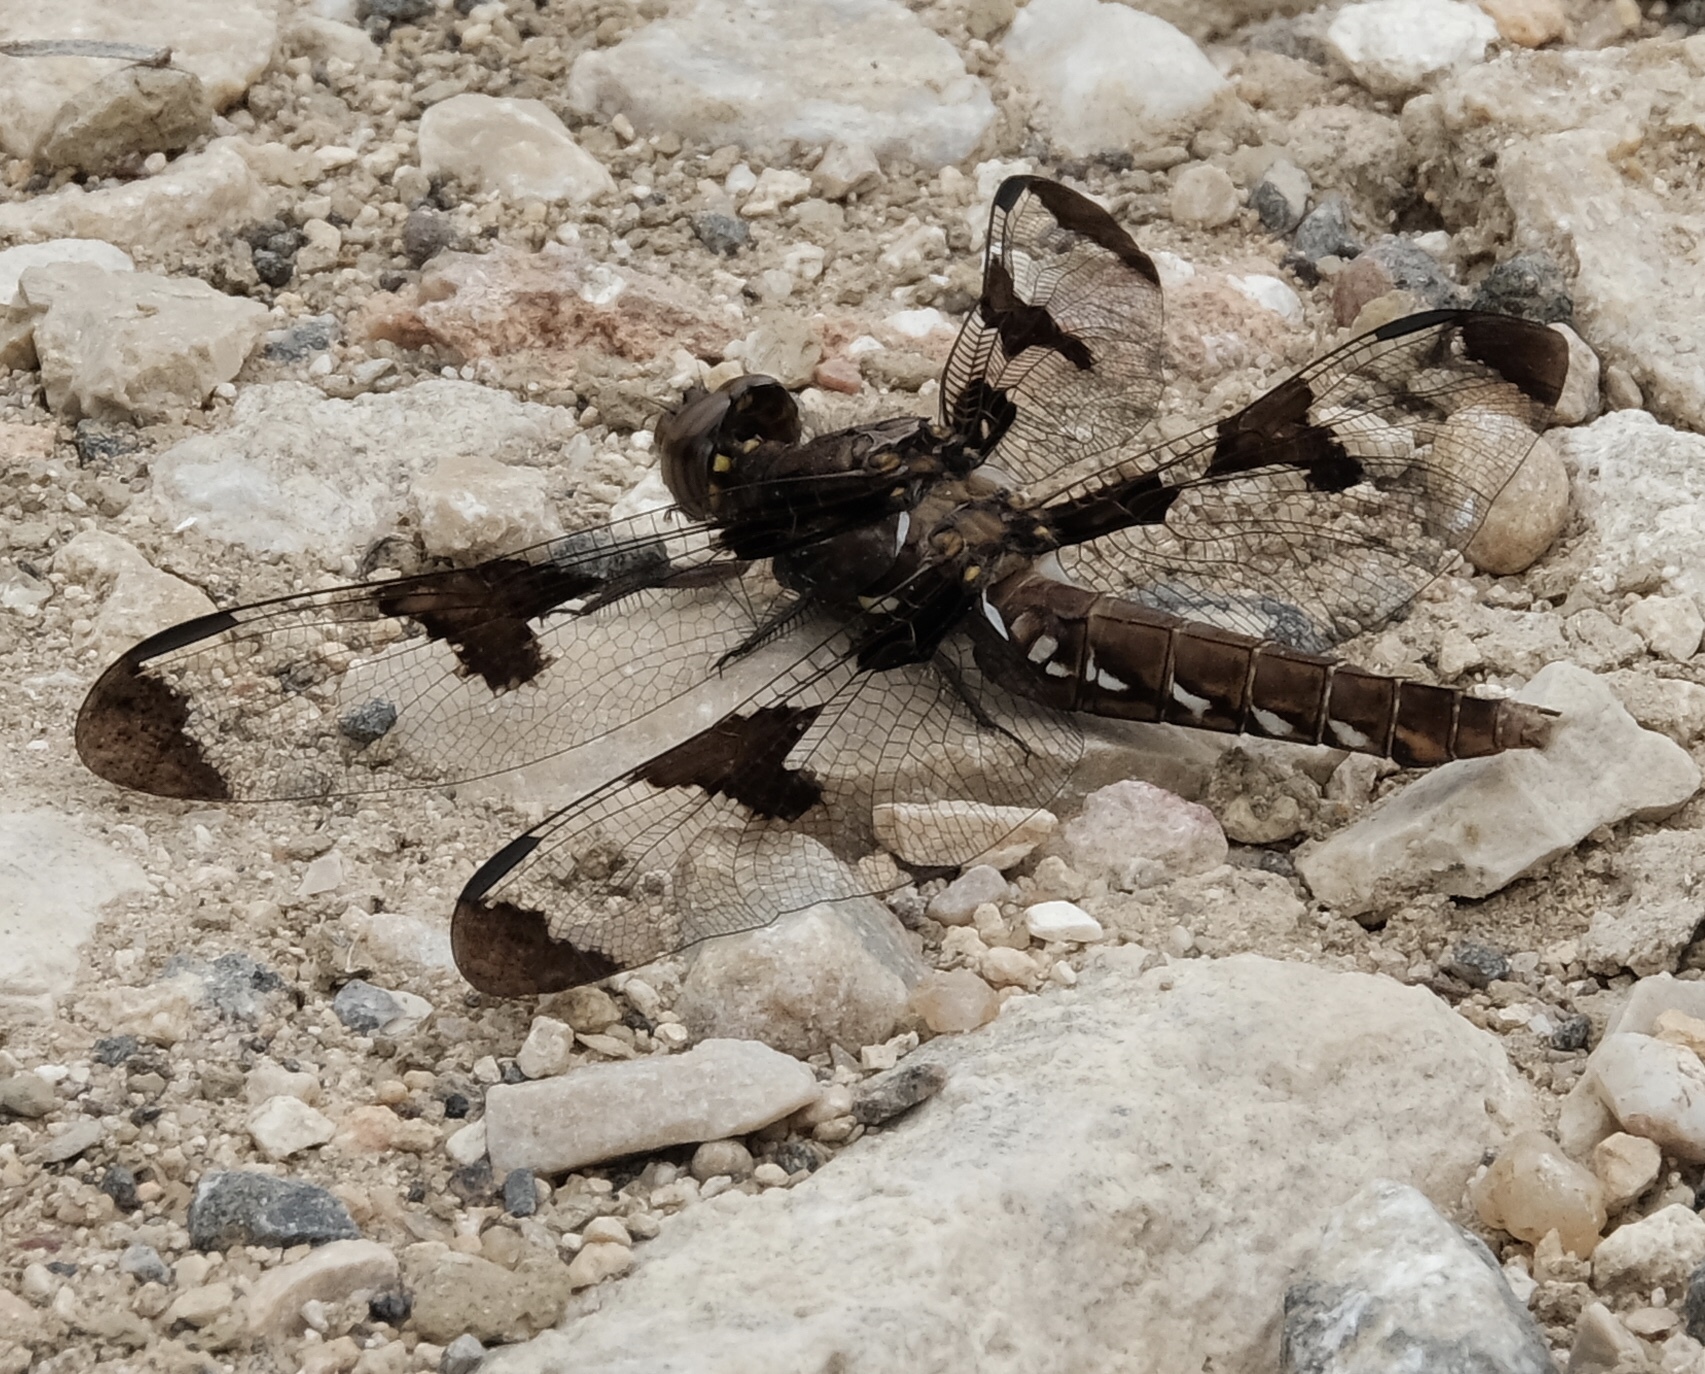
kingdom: Animalia
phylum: Arthropoda
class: Insecta
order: Odonata
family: Libellulidae
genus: Plathemis
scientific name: Plathemis lydia
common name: Common whitetail
